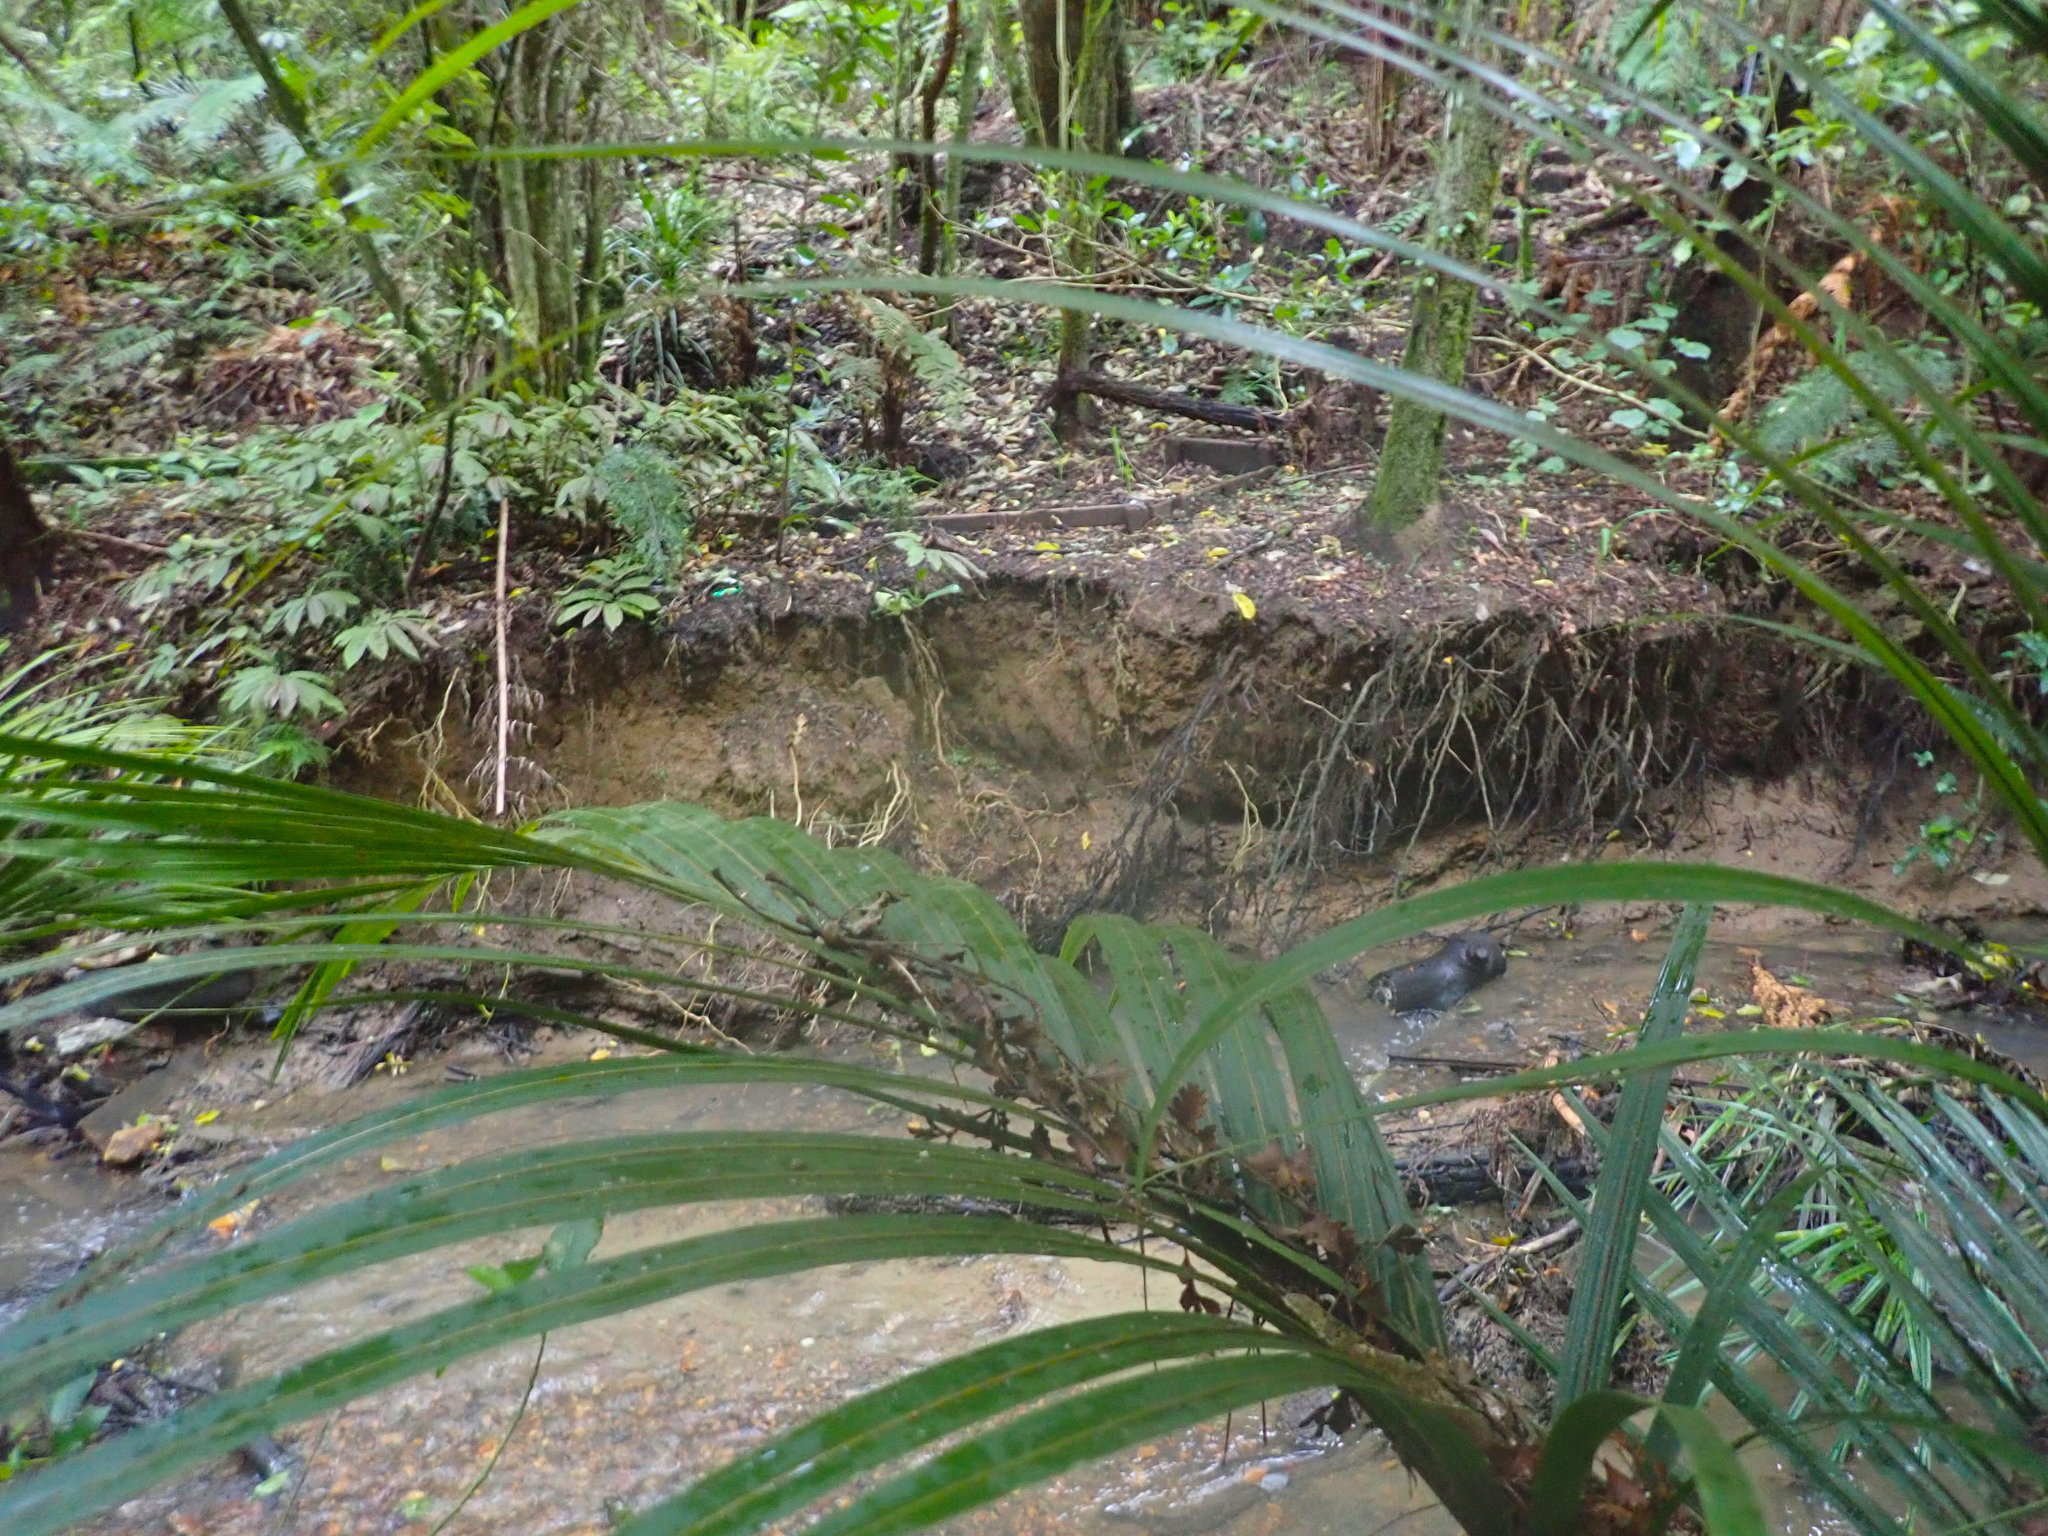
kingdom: Plantae
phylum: Tracheophyta
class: Liliopsida
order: Arecales
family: Arecaceae
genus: Rhopalostylis
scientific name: Rhopalostylis sapida
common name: Feather-duster palm
